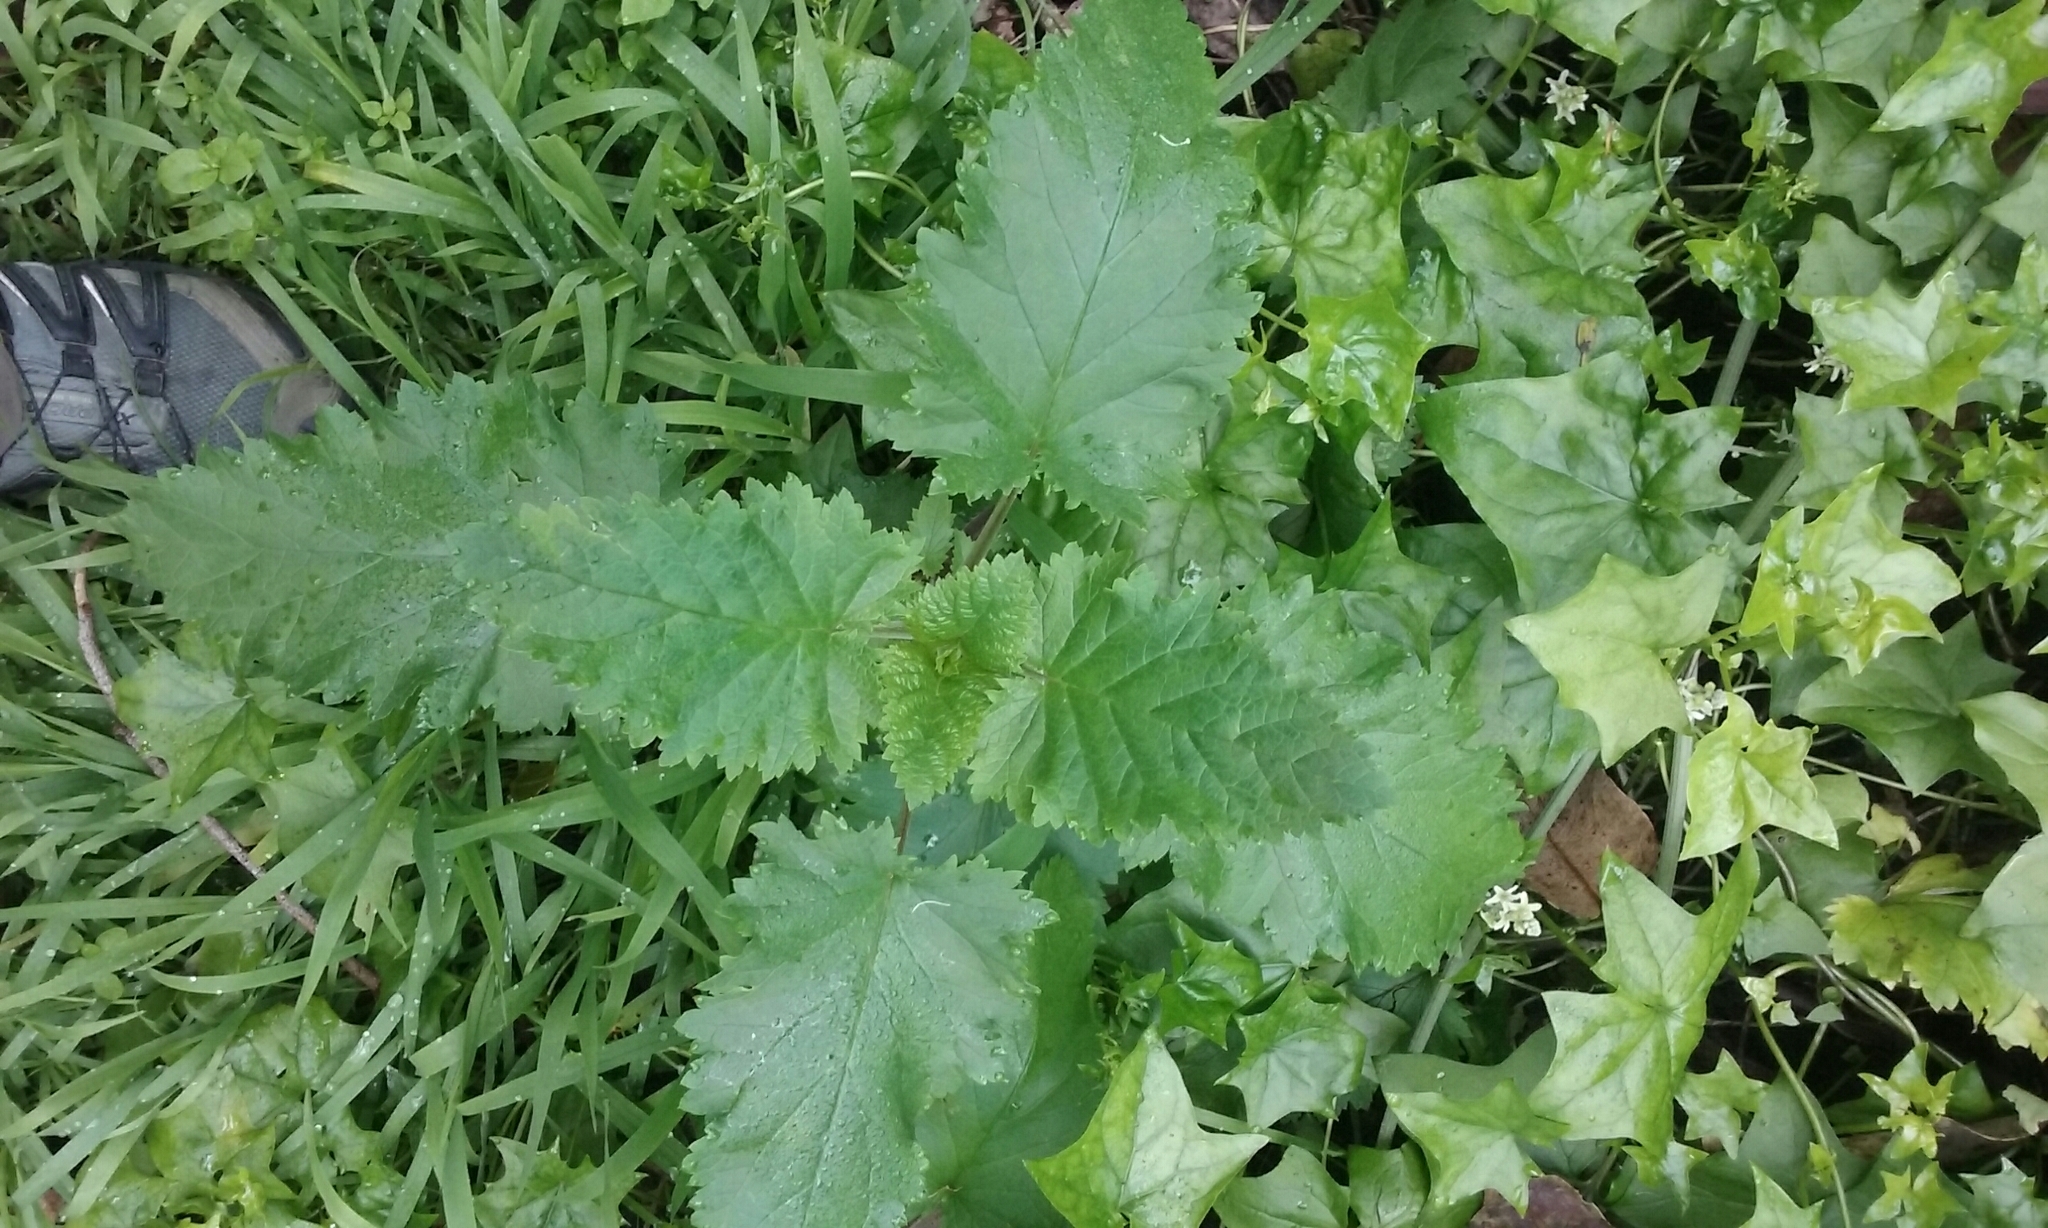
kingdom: Plantae
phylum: Tracheophyta
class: Magnoliopsida
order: Lamiales
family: Scrophulariaceae
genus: Scrophularia
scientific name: Scrophularia californica
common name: California figwort
